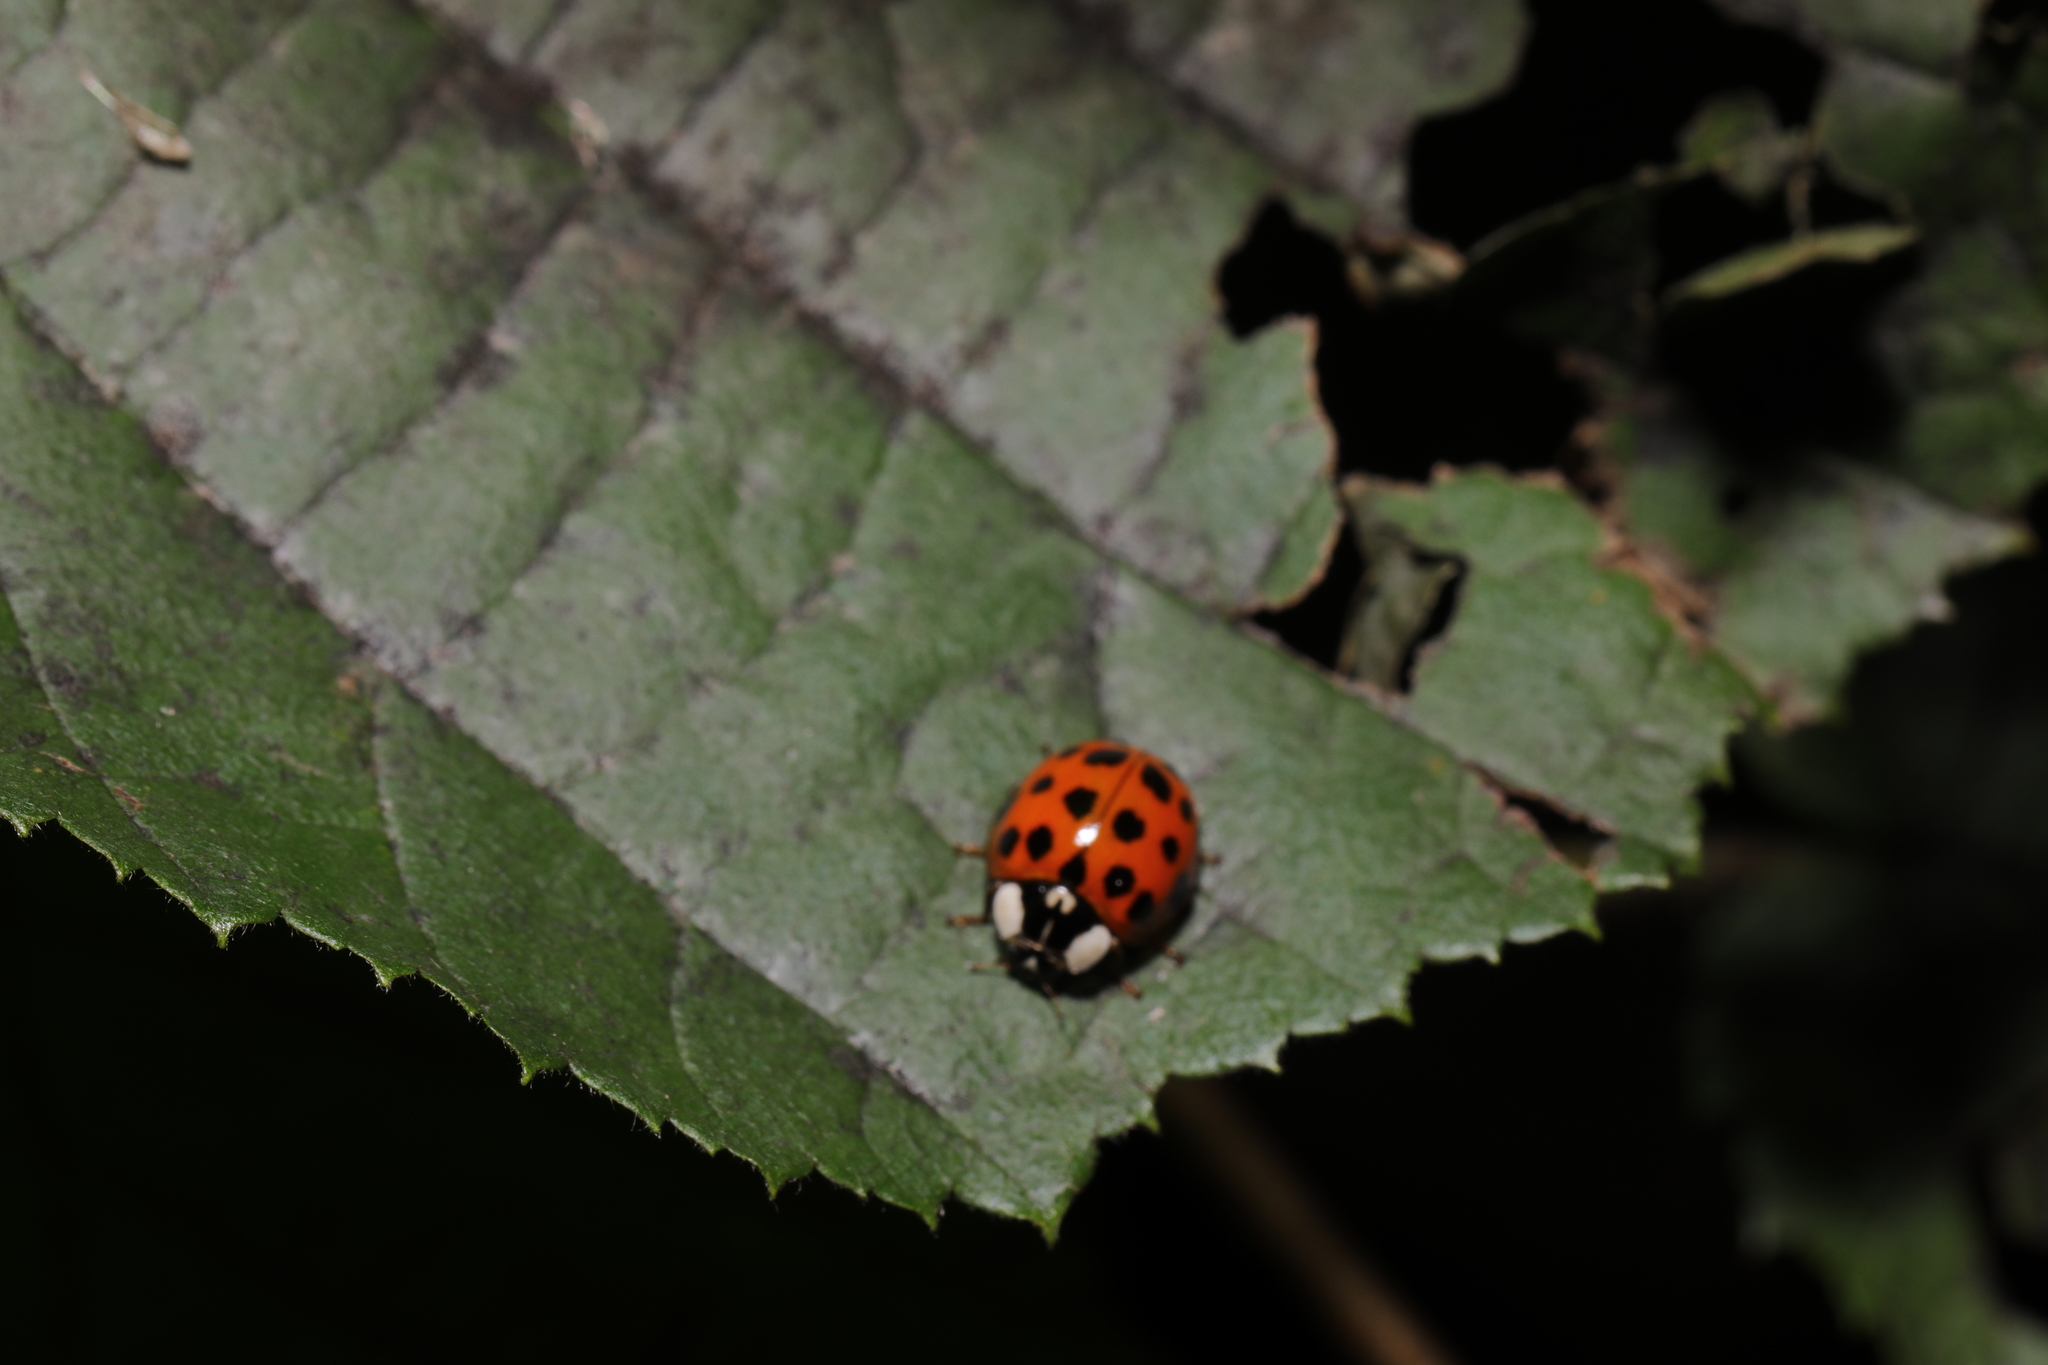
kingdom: Animalia
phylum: Arthropoda
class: Insecta
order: Coleoptera
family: Coccinellidae
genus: Harmonia
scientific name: Harmonia axyridis
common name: Harlequin ladybird
